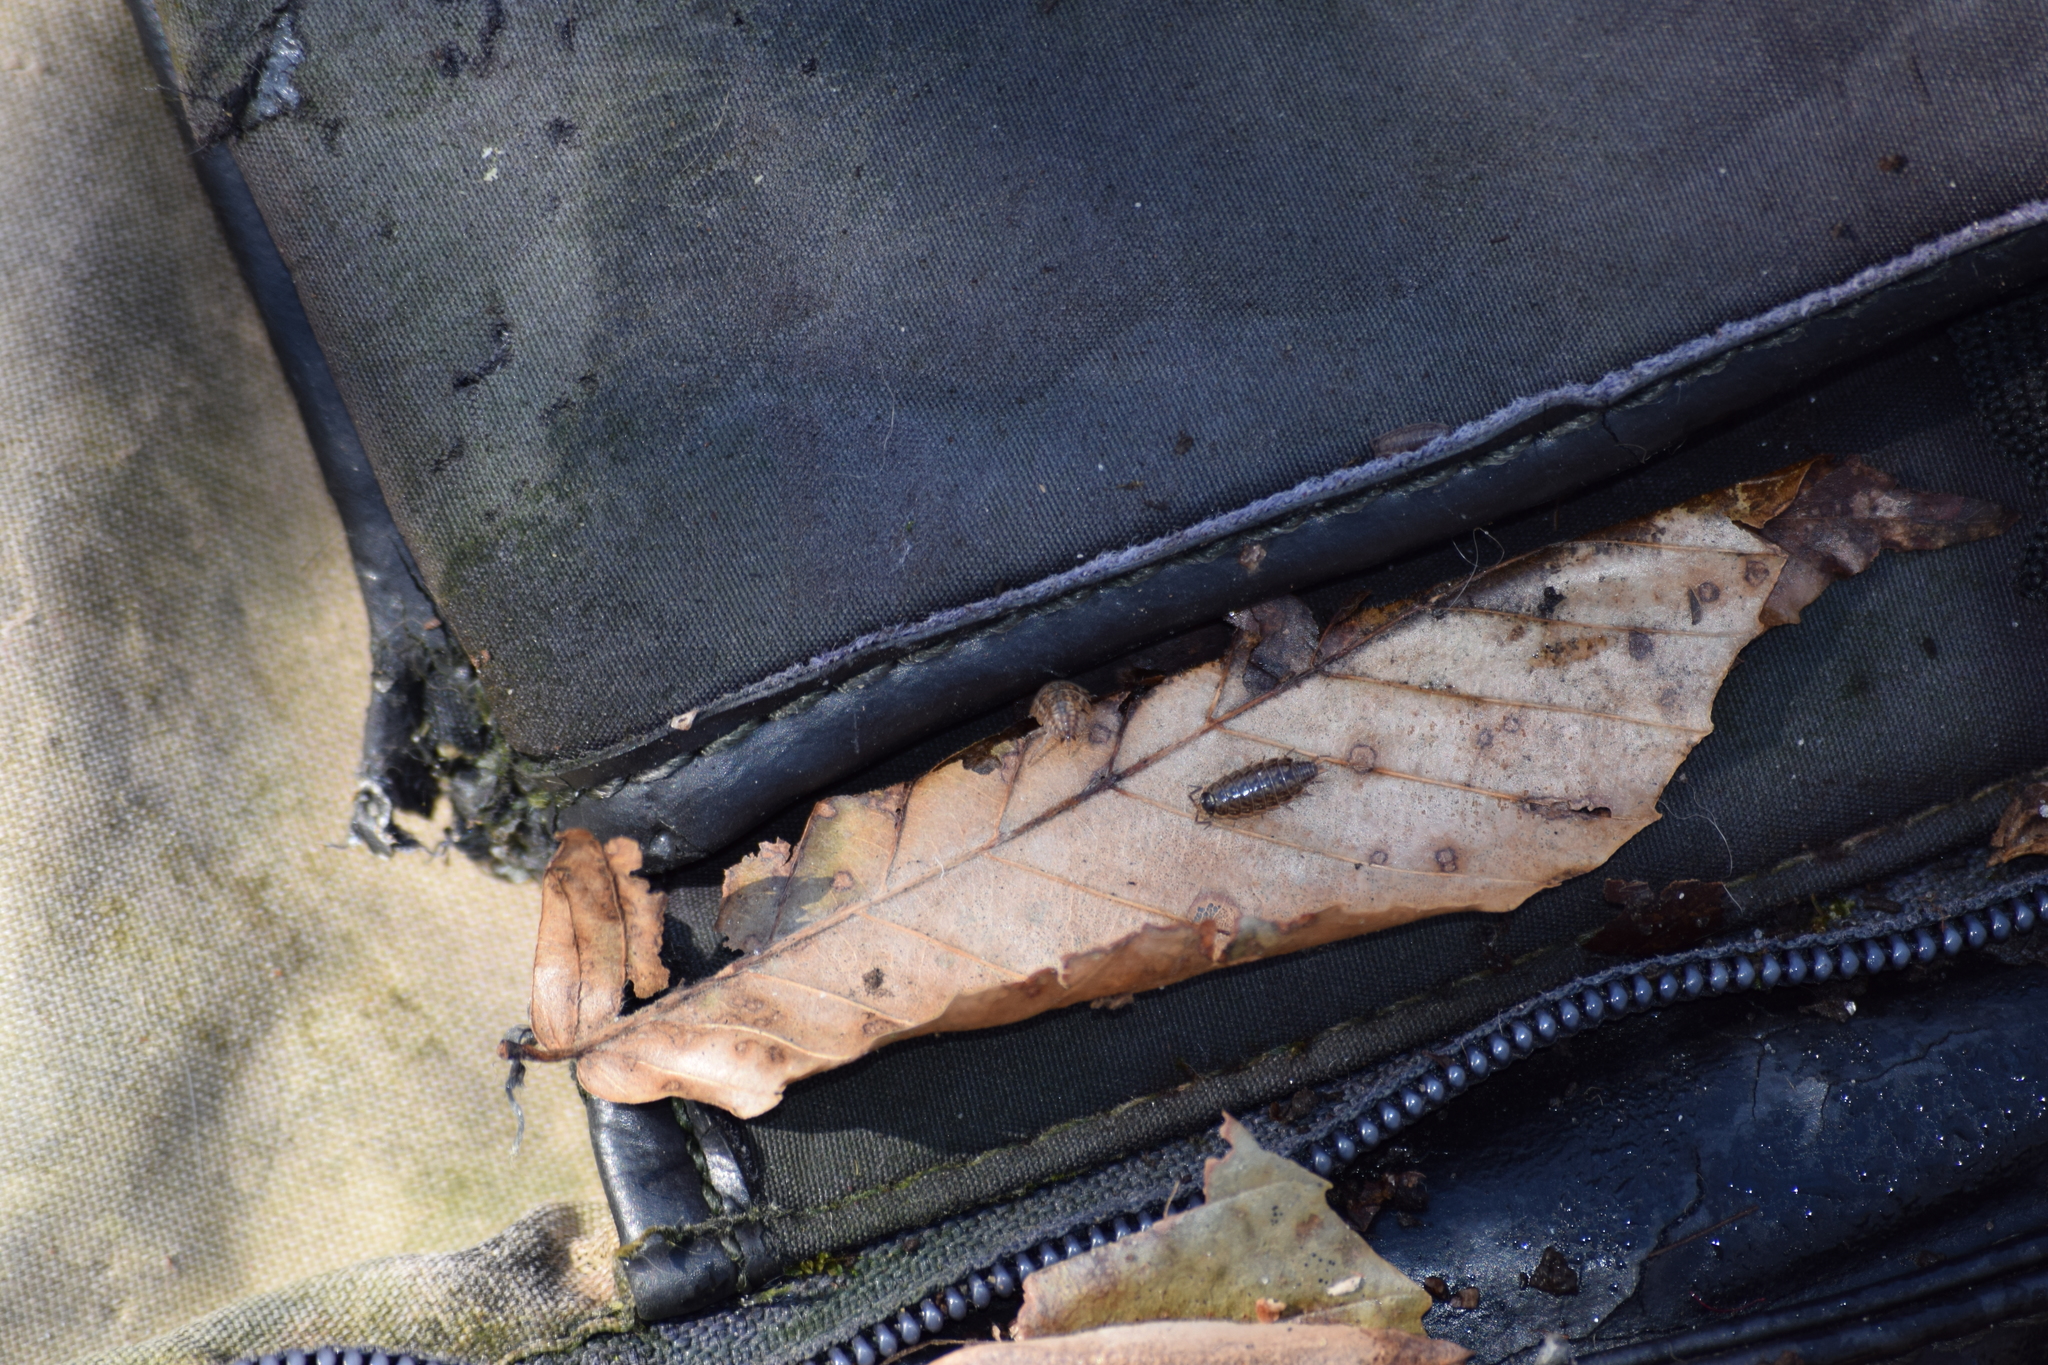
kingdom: Animalia
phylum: Arthropoda
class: Malacostraca
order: Isopoda
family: Philosciidae
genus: Philoscia
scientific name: Philoscia muscorum
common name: Common striped woodlouse
